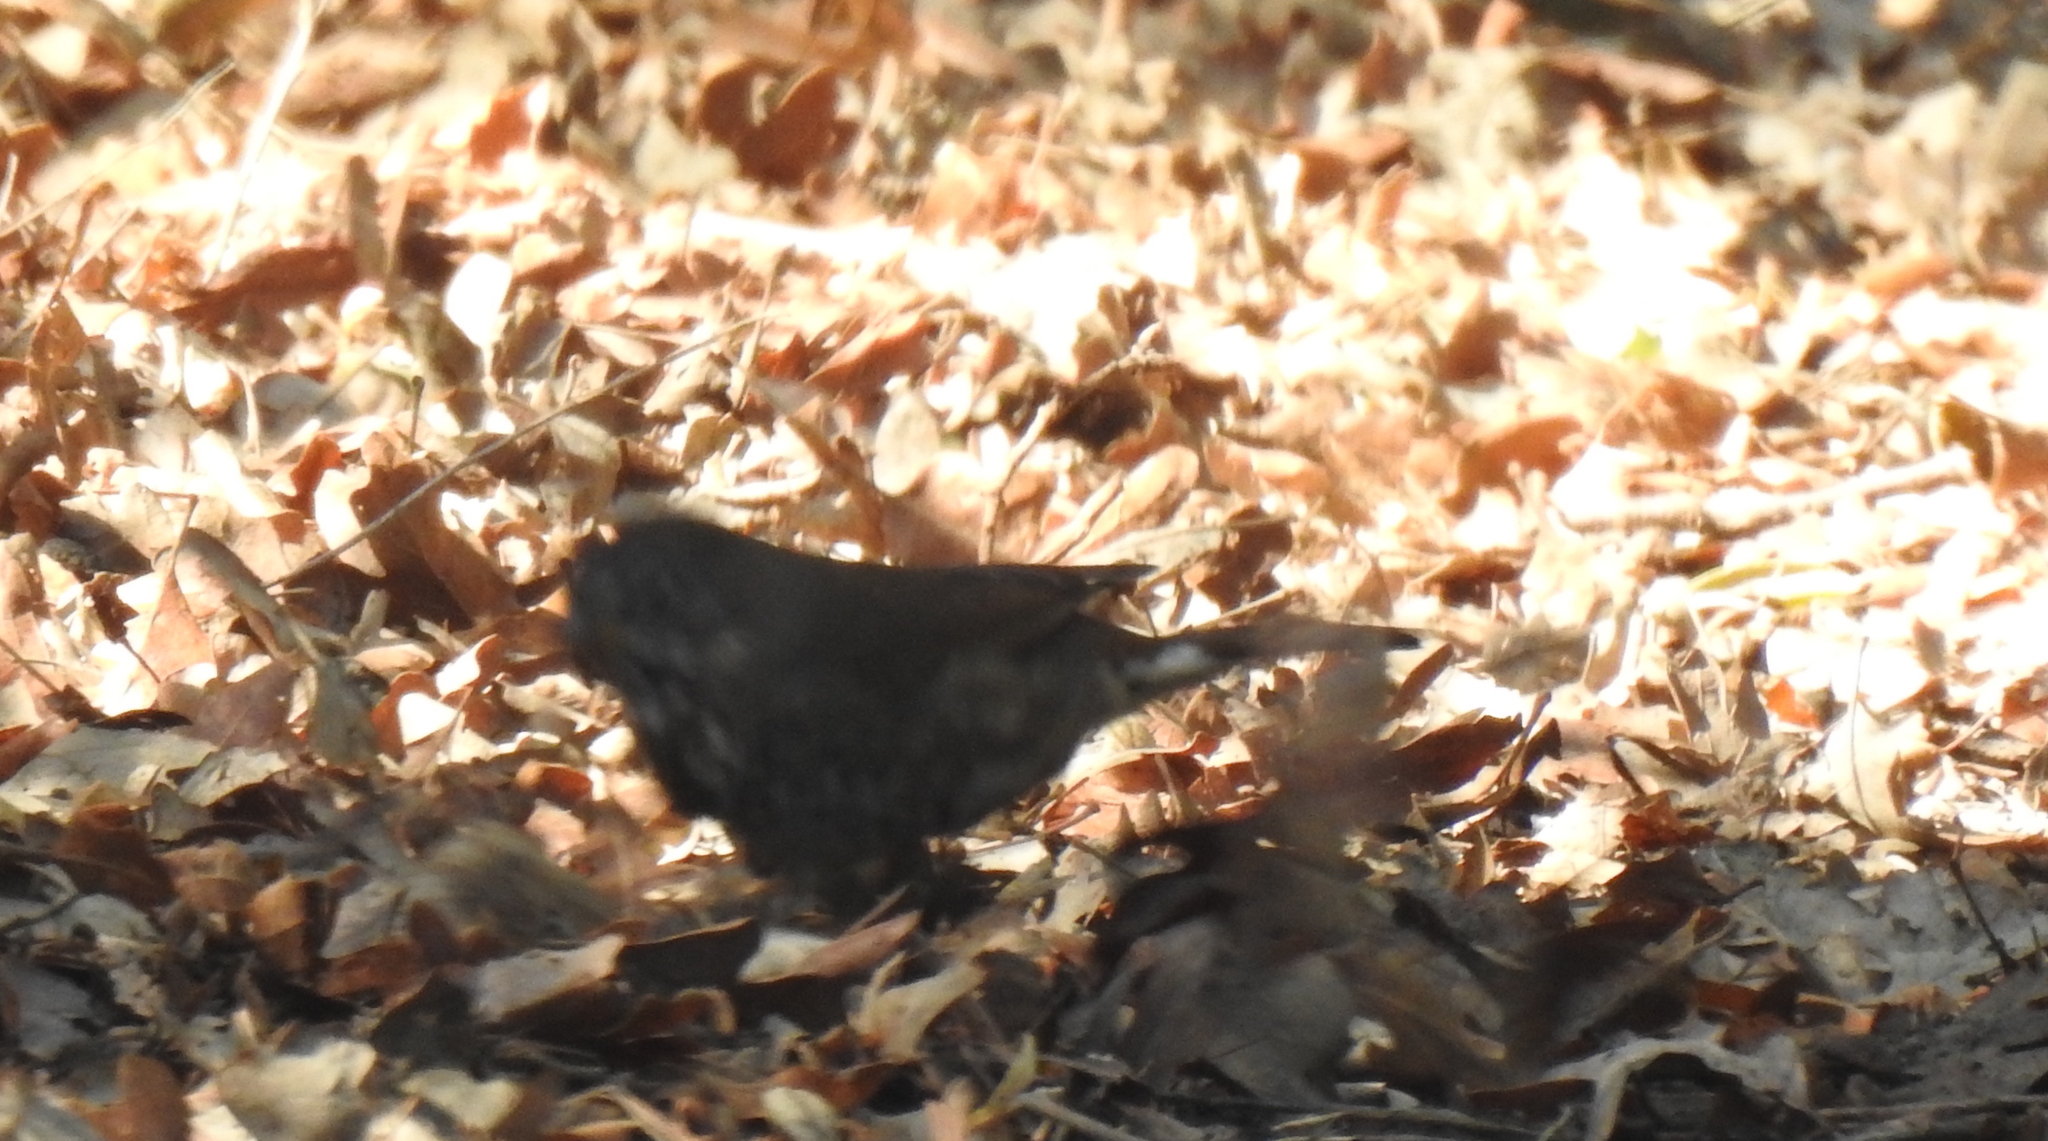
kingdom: Animalia
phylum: Chordata
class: Aves
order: Passeriformes
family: Passerellidae
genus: Passerella
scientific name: Passerella iliaca
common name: Fox sparrow
